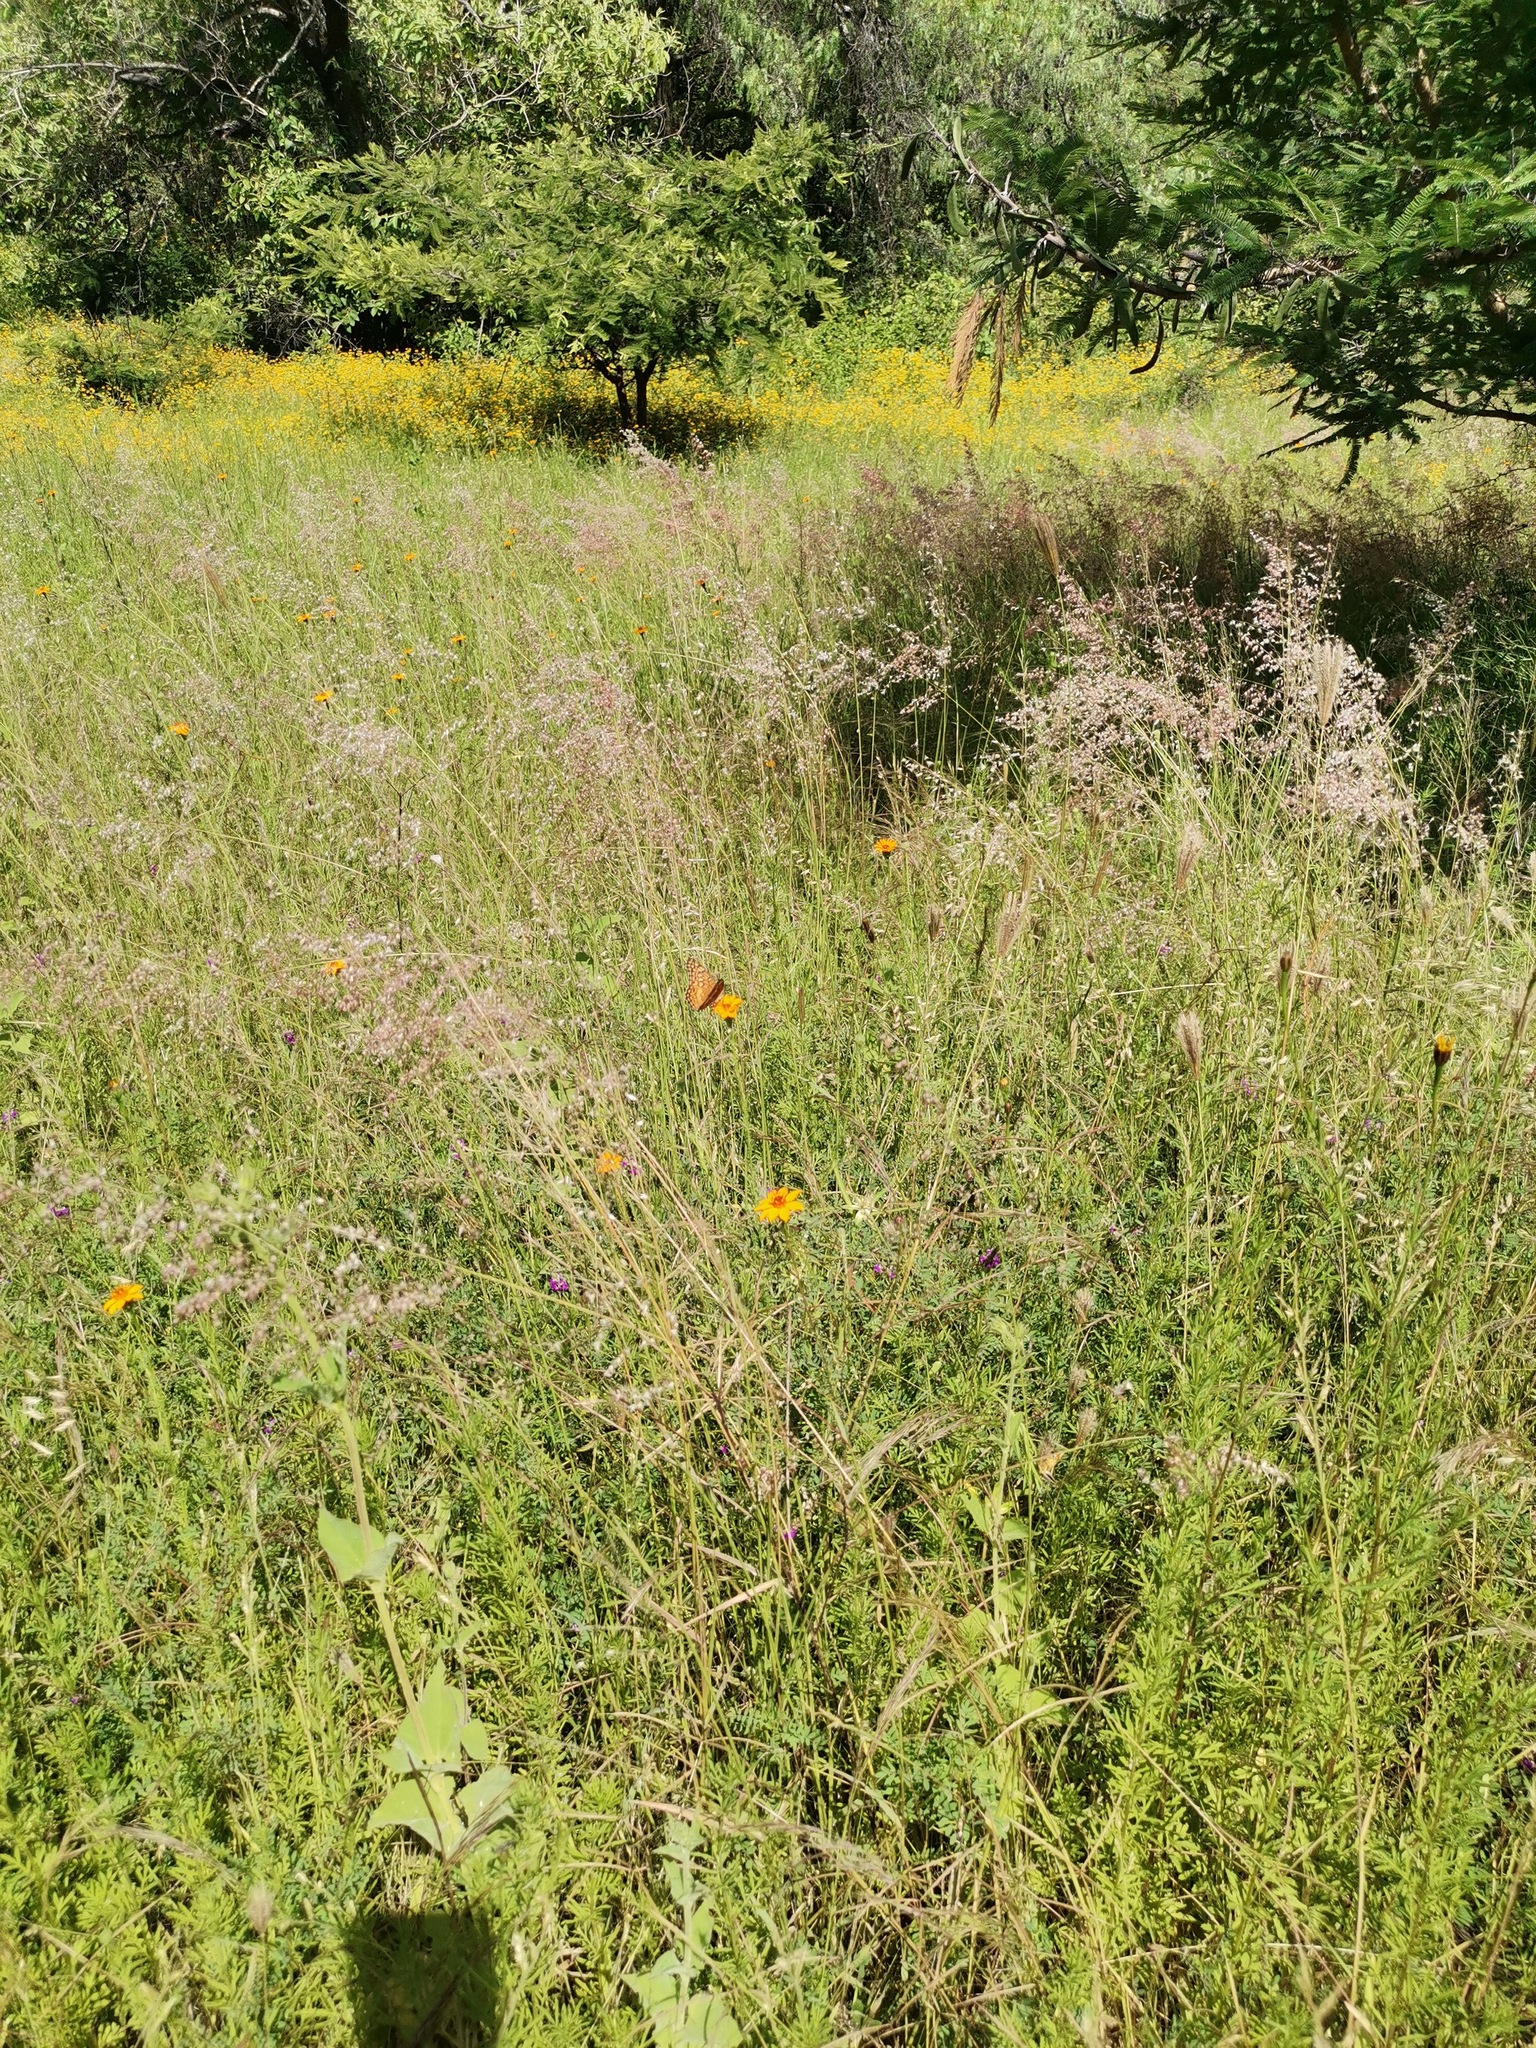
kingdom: Animalia
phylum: Arthropoda
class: Insecta
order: Lepidoptera
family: Nymphalidae
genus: Euptoieta
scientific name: Euptoieta claudia
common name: Variegated fritillary
